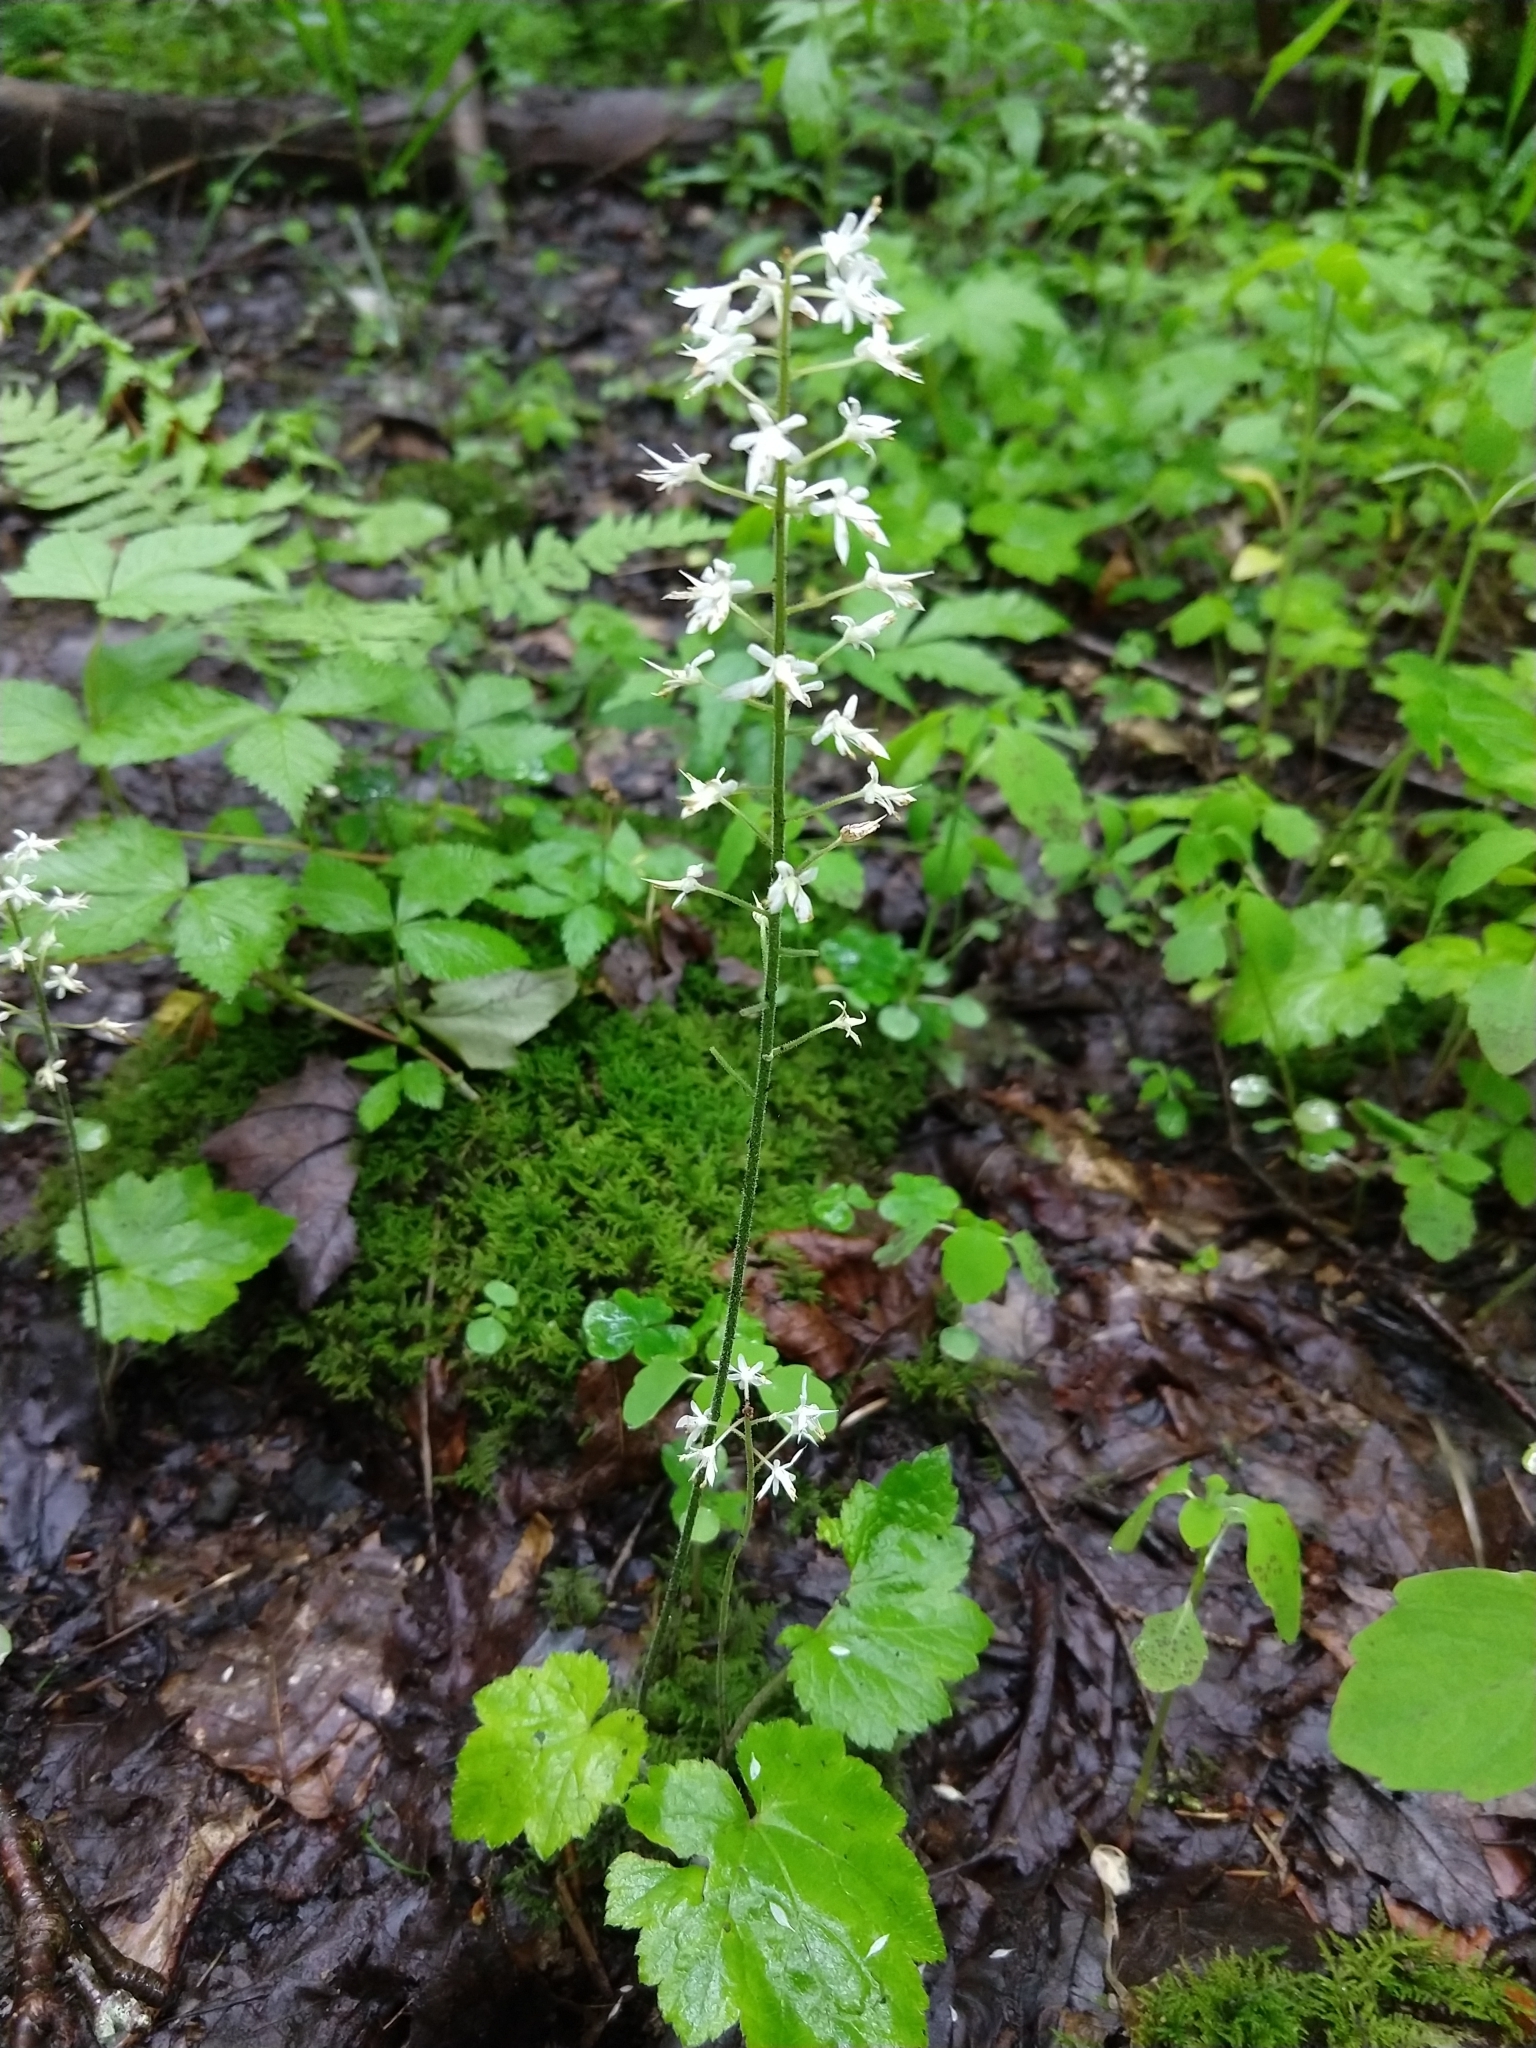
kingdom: Plantae
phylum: Tracheophyta
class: Magnoliopsida
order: Saxifragales
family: Saxifragaceae
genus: Tiarella
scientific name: Tiarella stolonifera
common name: Stoloniferous foamflower
